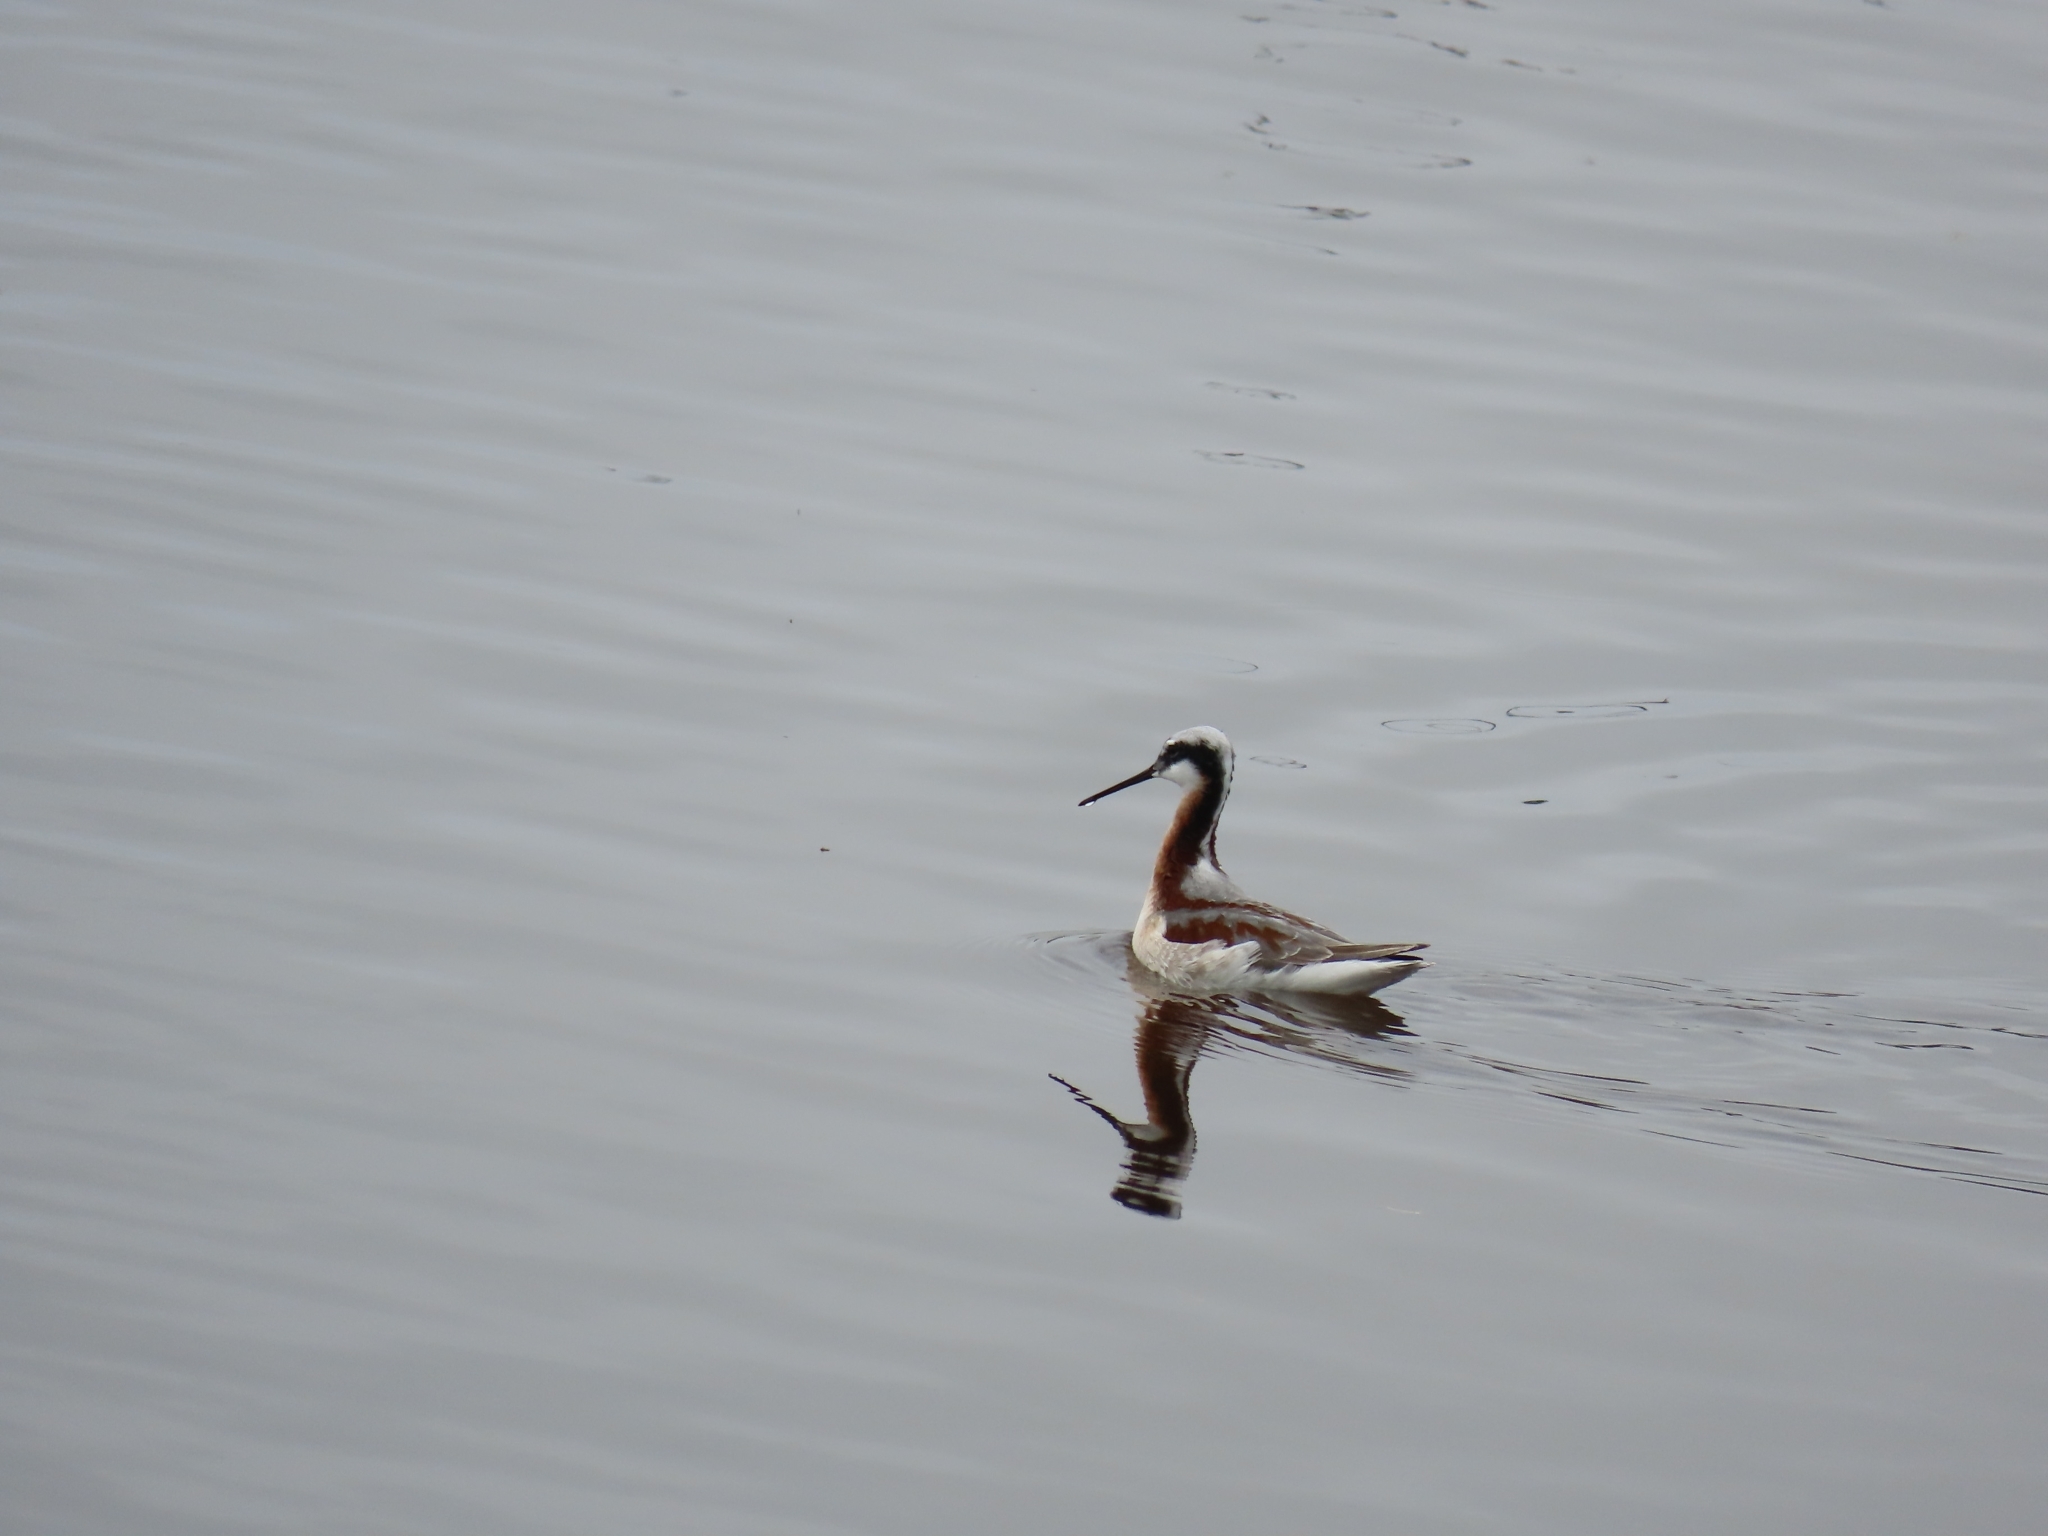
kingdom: Animalia
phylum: Chordata
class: Aves
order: Charadriiformes
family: Scolopacidae
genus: Phalaropus
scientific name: Phalaropus tricolor
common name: Wilson's phalarope
